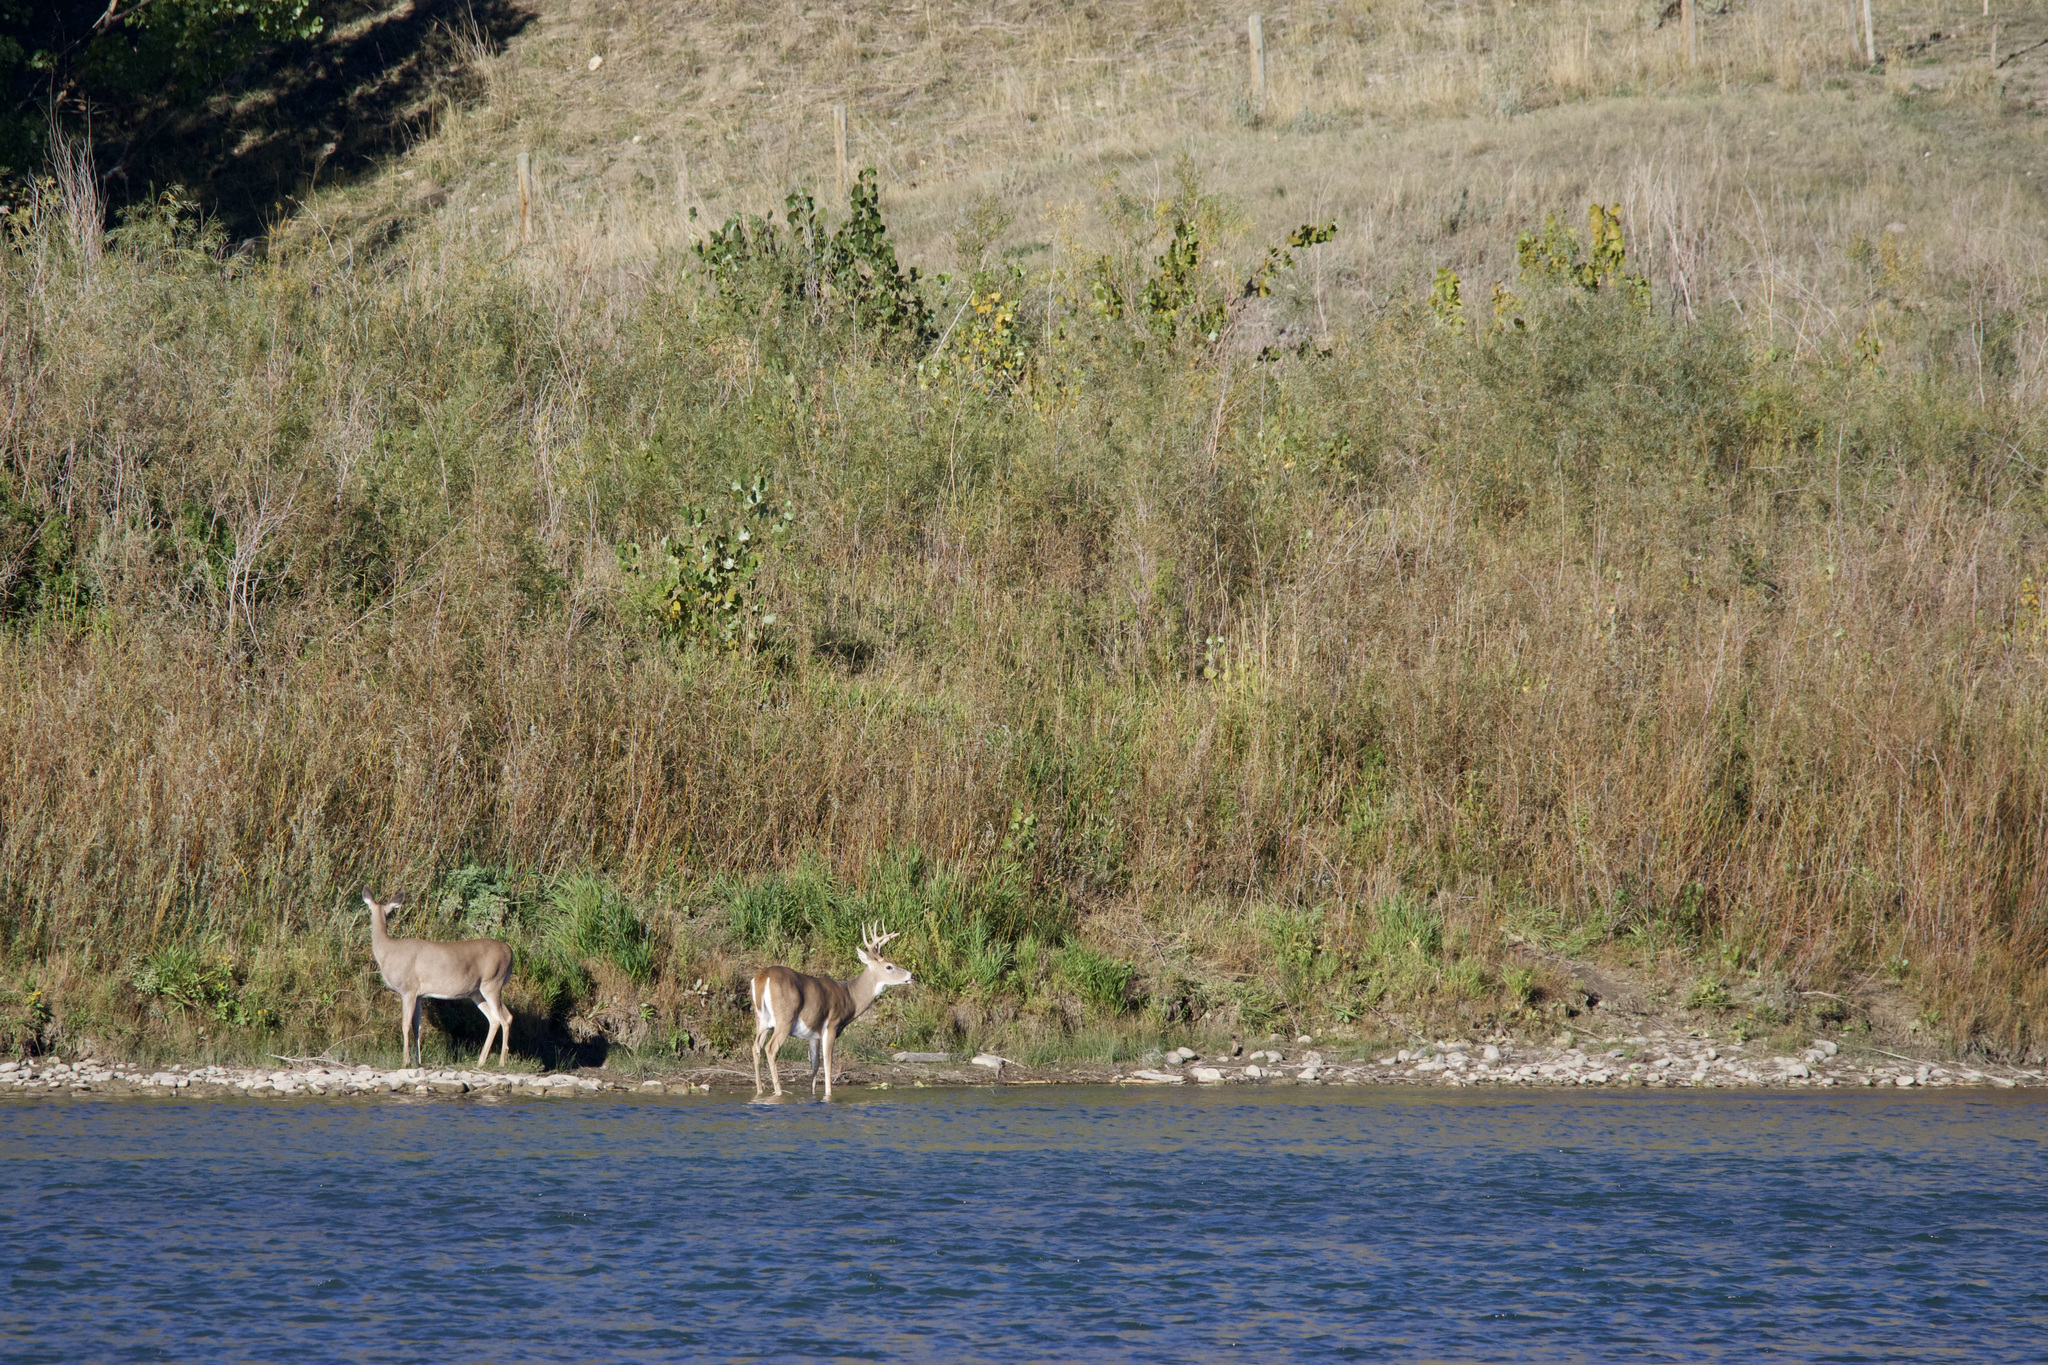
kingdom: Animalia
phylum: Chordata
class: Mammalia
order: Artiodactyla
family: Cervidae
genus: Odocoileus
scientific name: Odocoileus virginianus
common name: White-tailed deer
